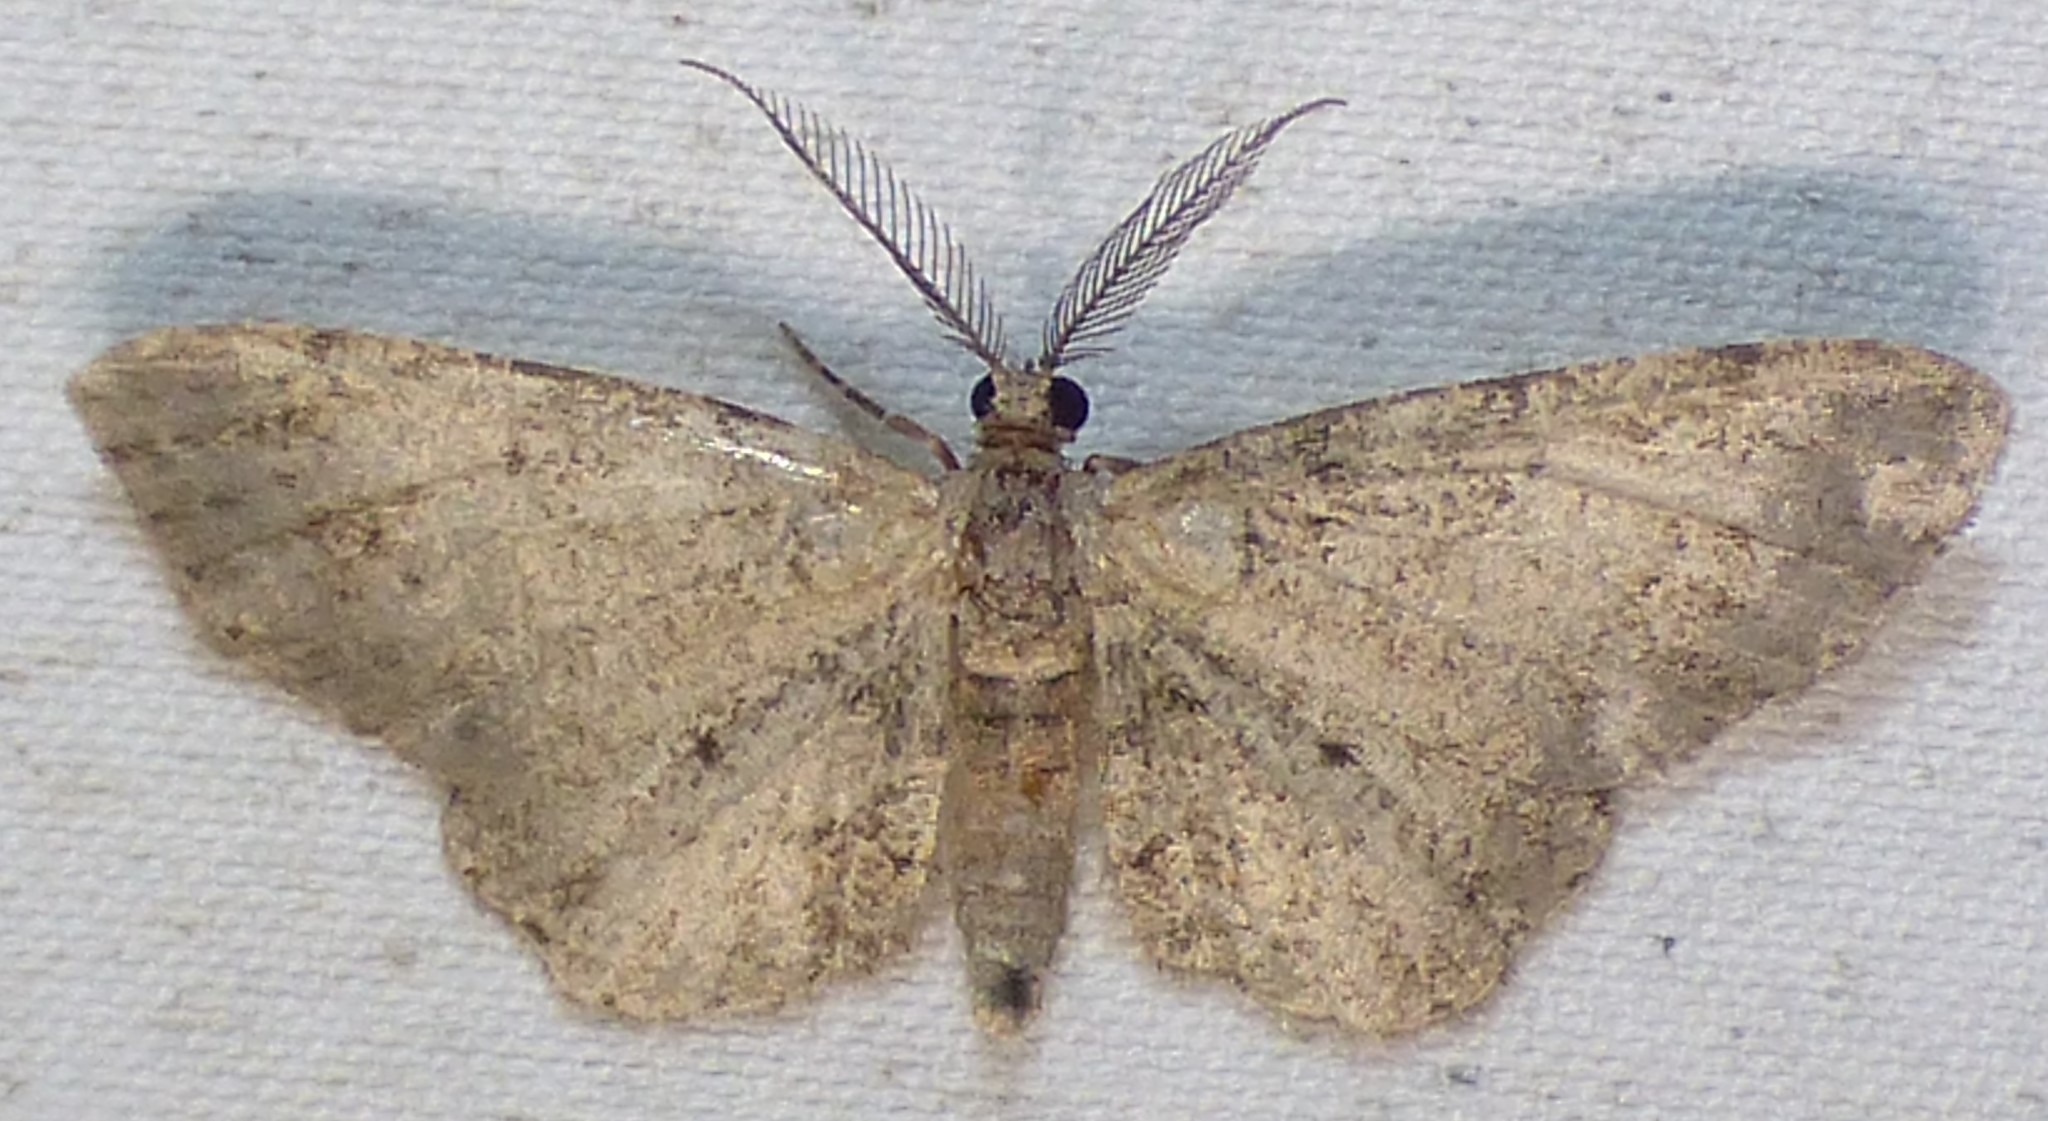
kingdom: Animalia
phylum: Arthropoda
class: Insecta
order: Lepidoptera
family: Geometridae
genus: Glenoides
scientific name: Glenoides texanaria
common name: Texas gray
